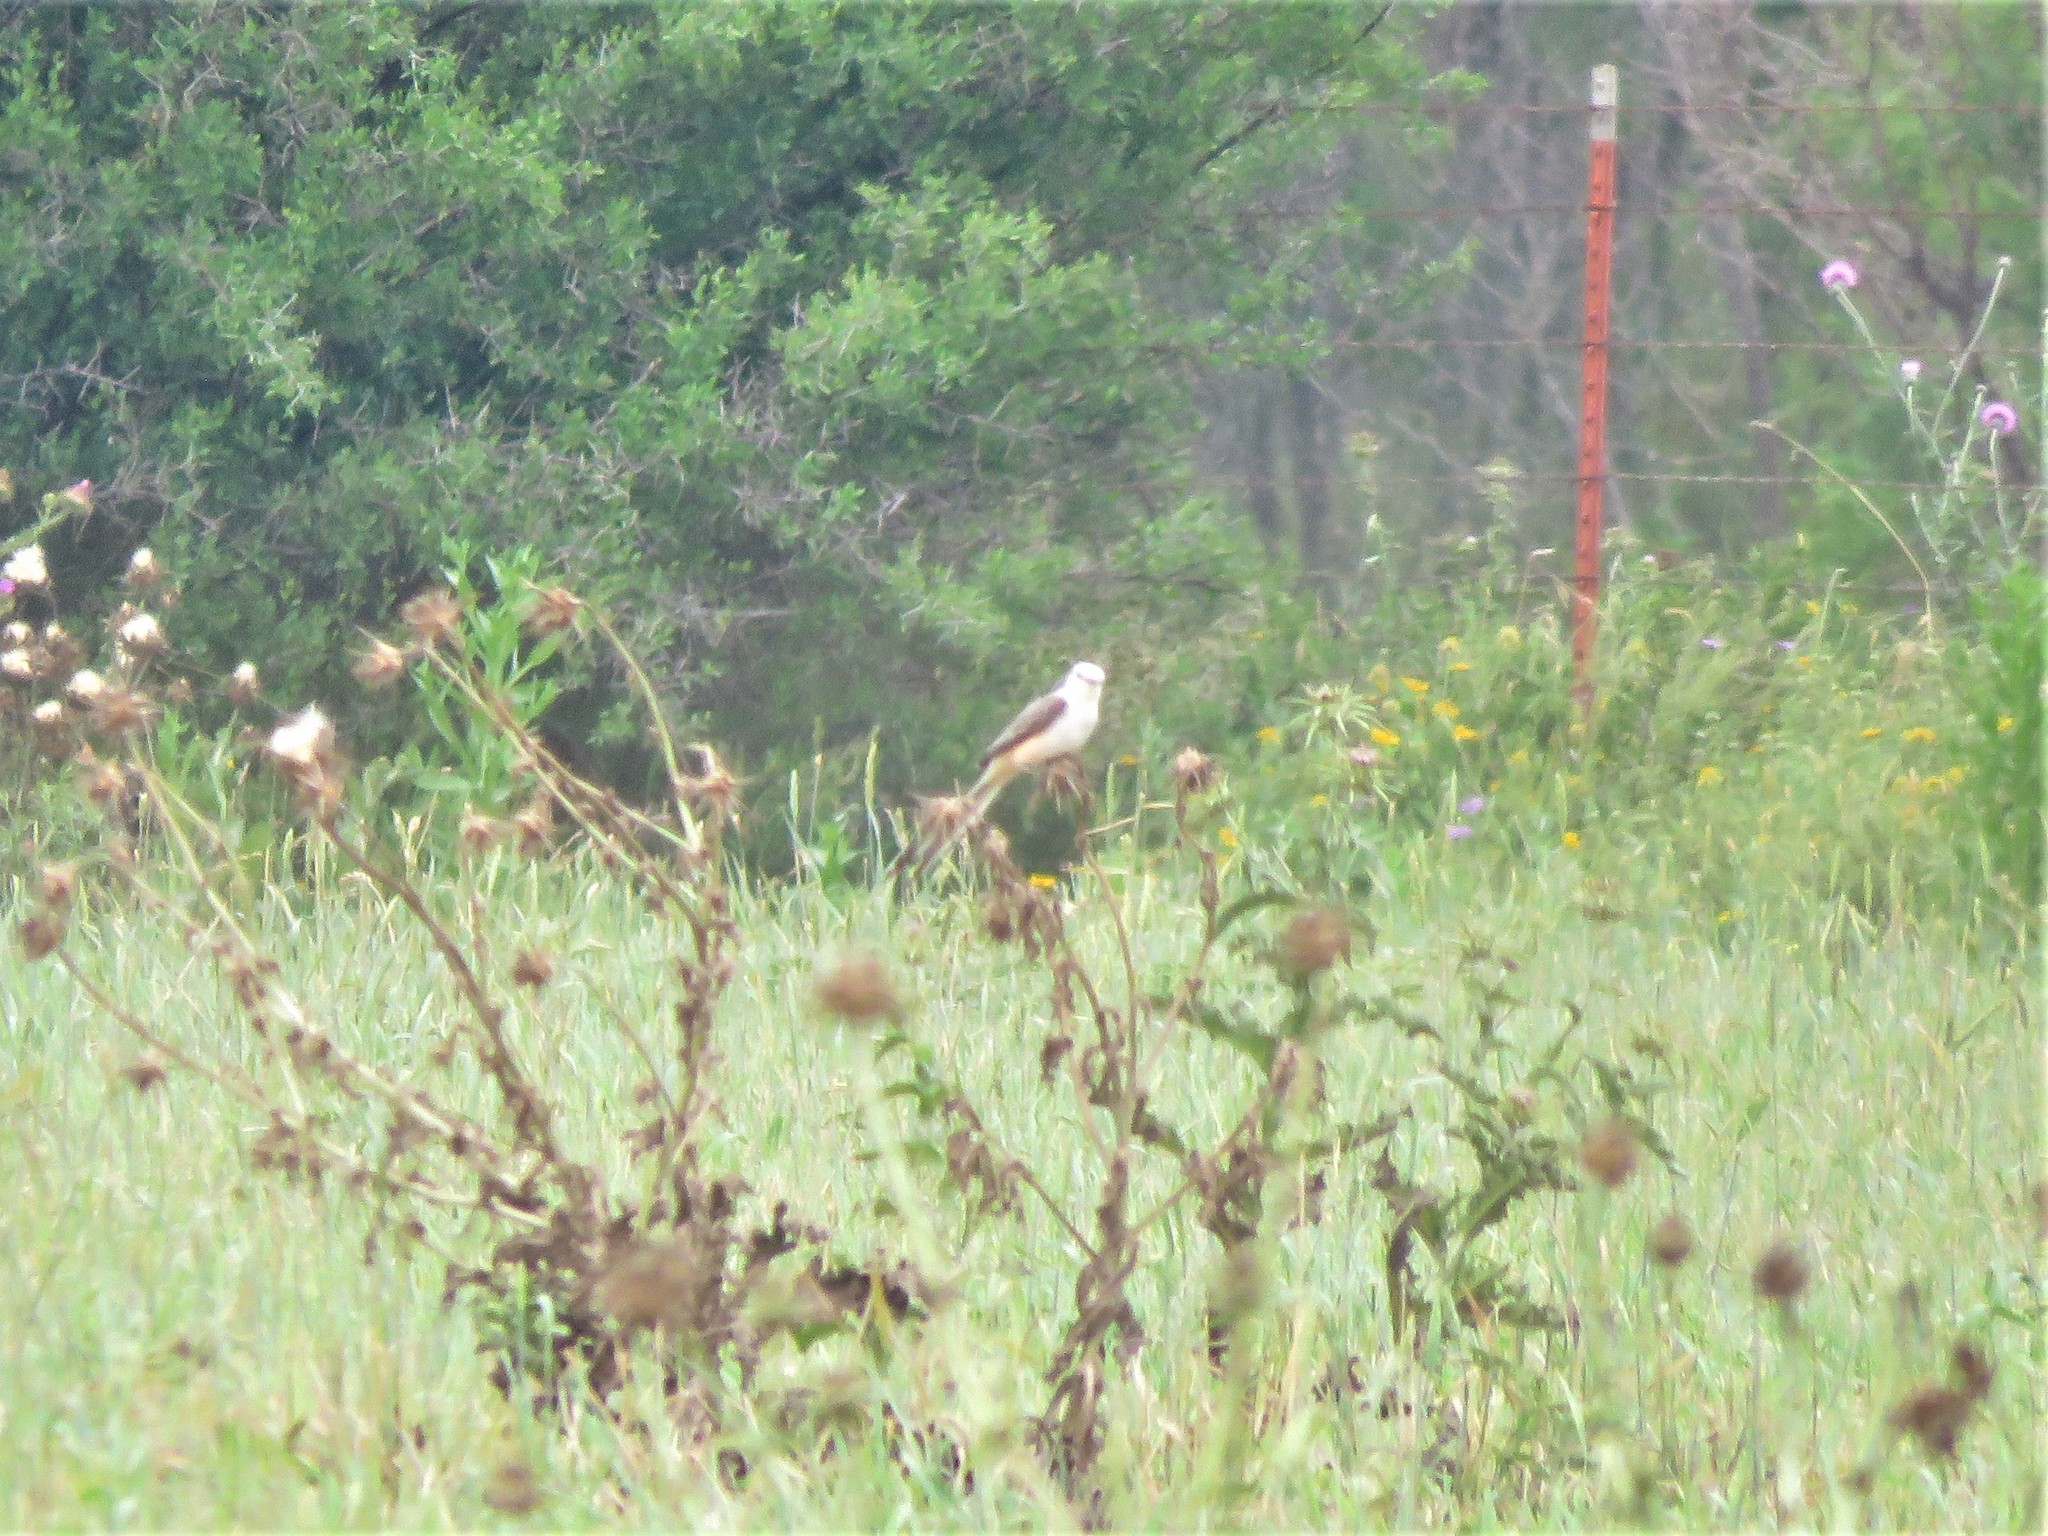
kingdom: Animalia
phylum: Chordata
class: Aves
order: Passeriformes
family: Tyrannidae
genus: Tyrannus
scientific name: Tyrannus forficatus
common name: Scissor-tailed flycatcher
